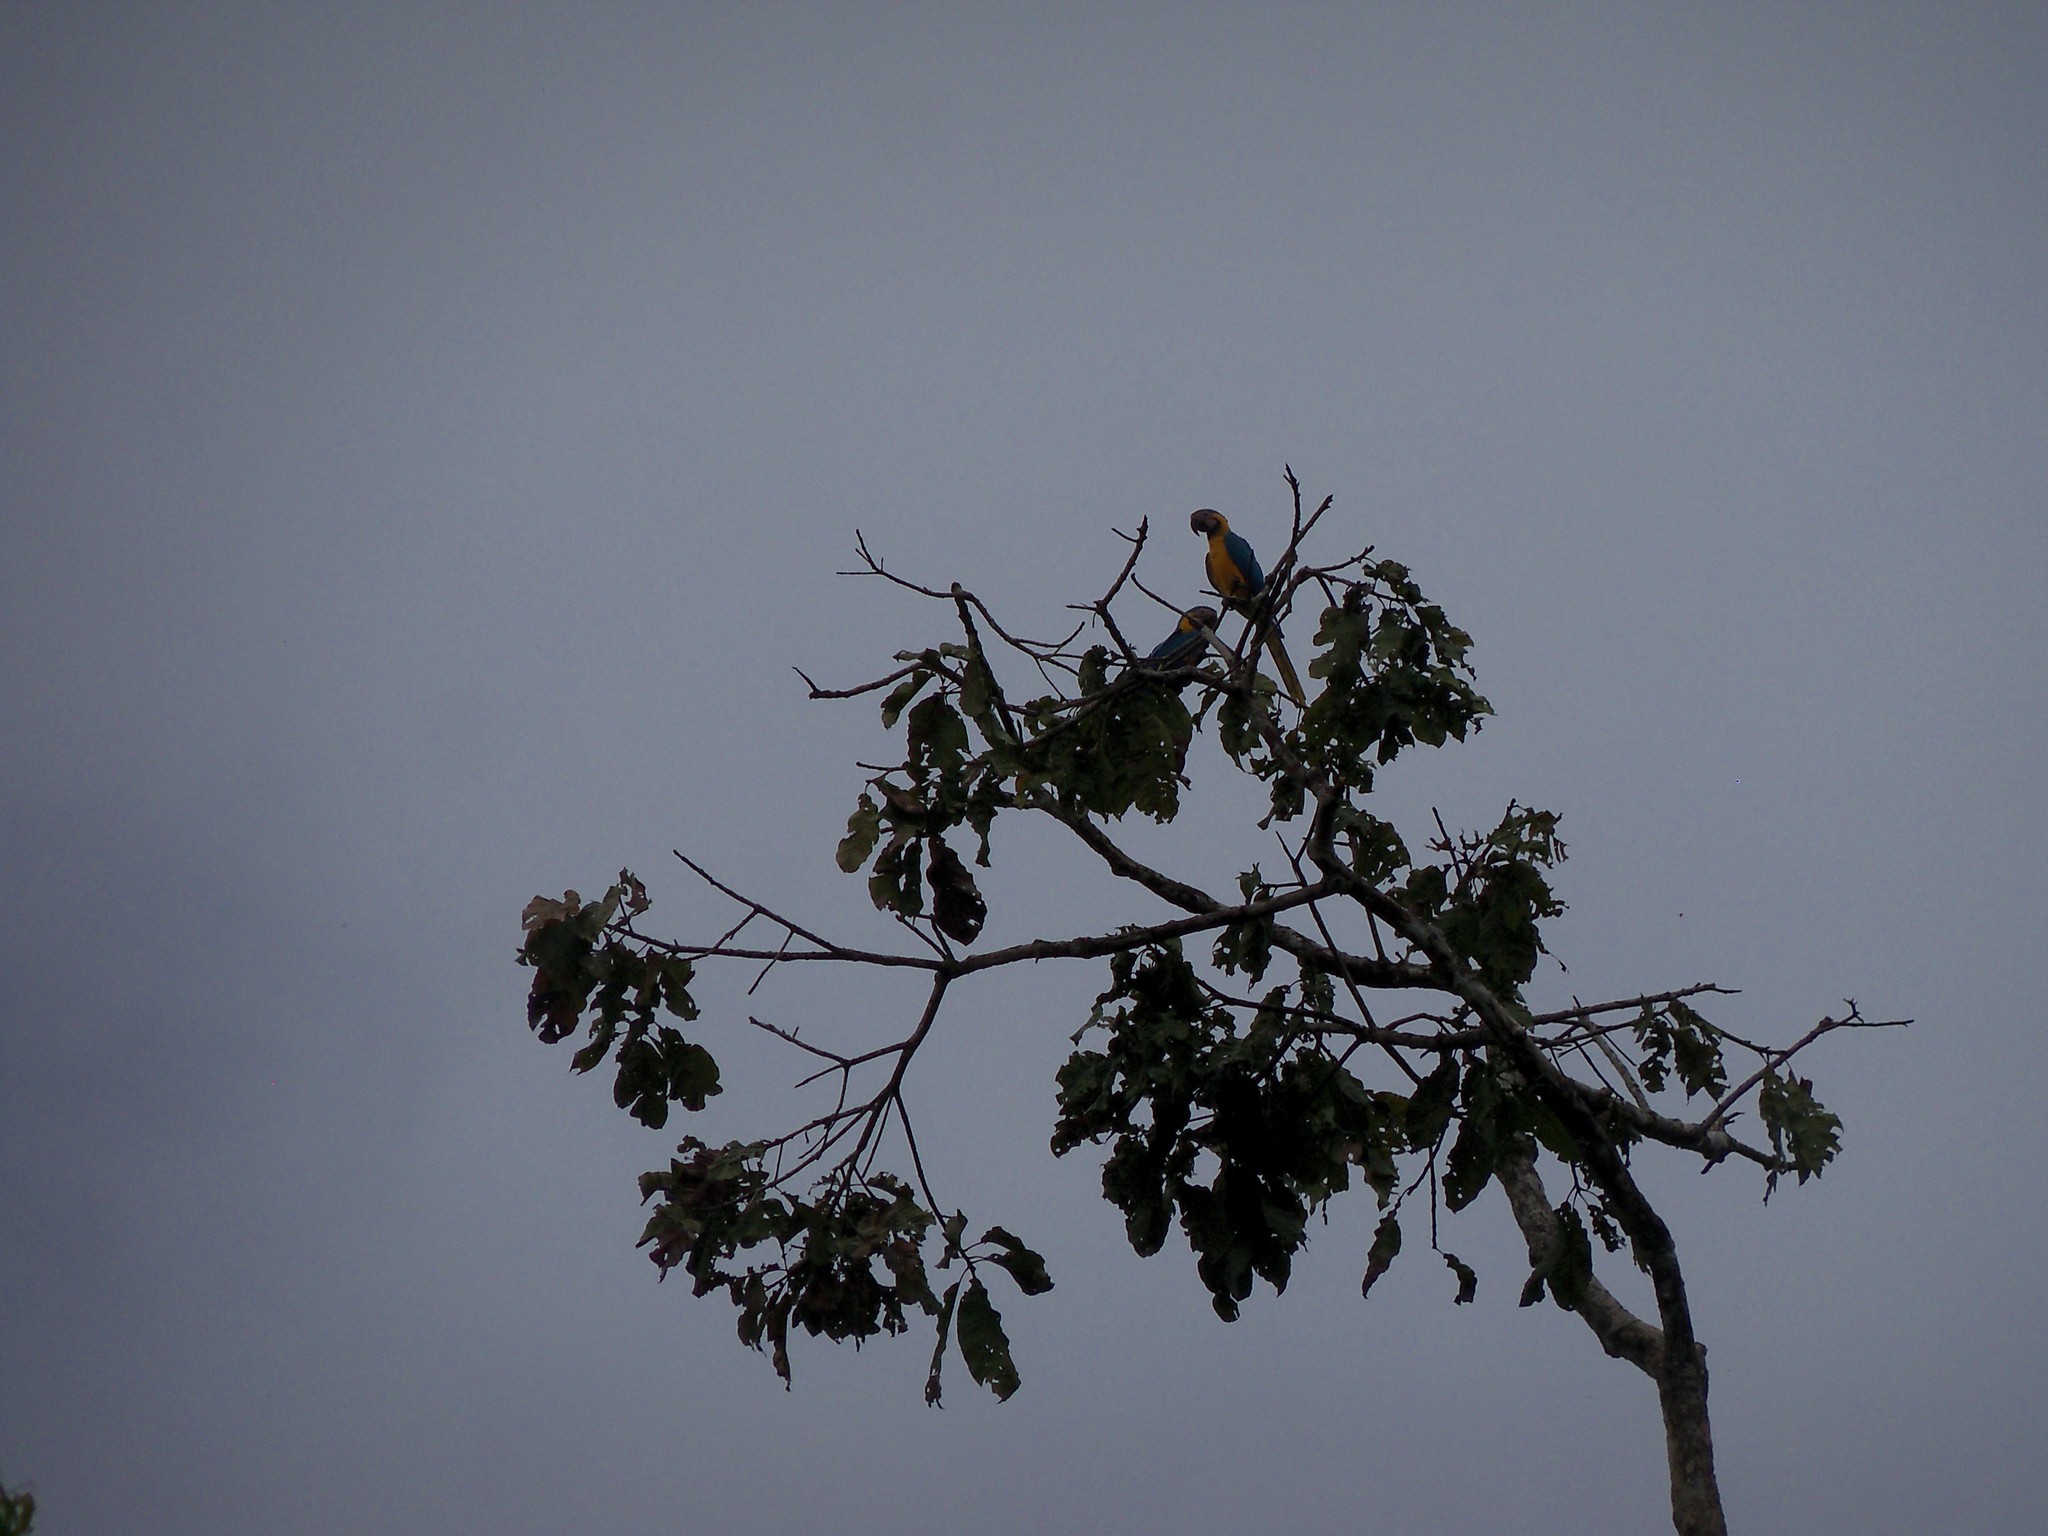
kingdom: Animalia
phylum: Chordata
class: Aves
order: Psittaciformes
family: Psittacidae
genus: Ara
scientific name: Ara ararauna
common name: Blue-and-yellow macaw
